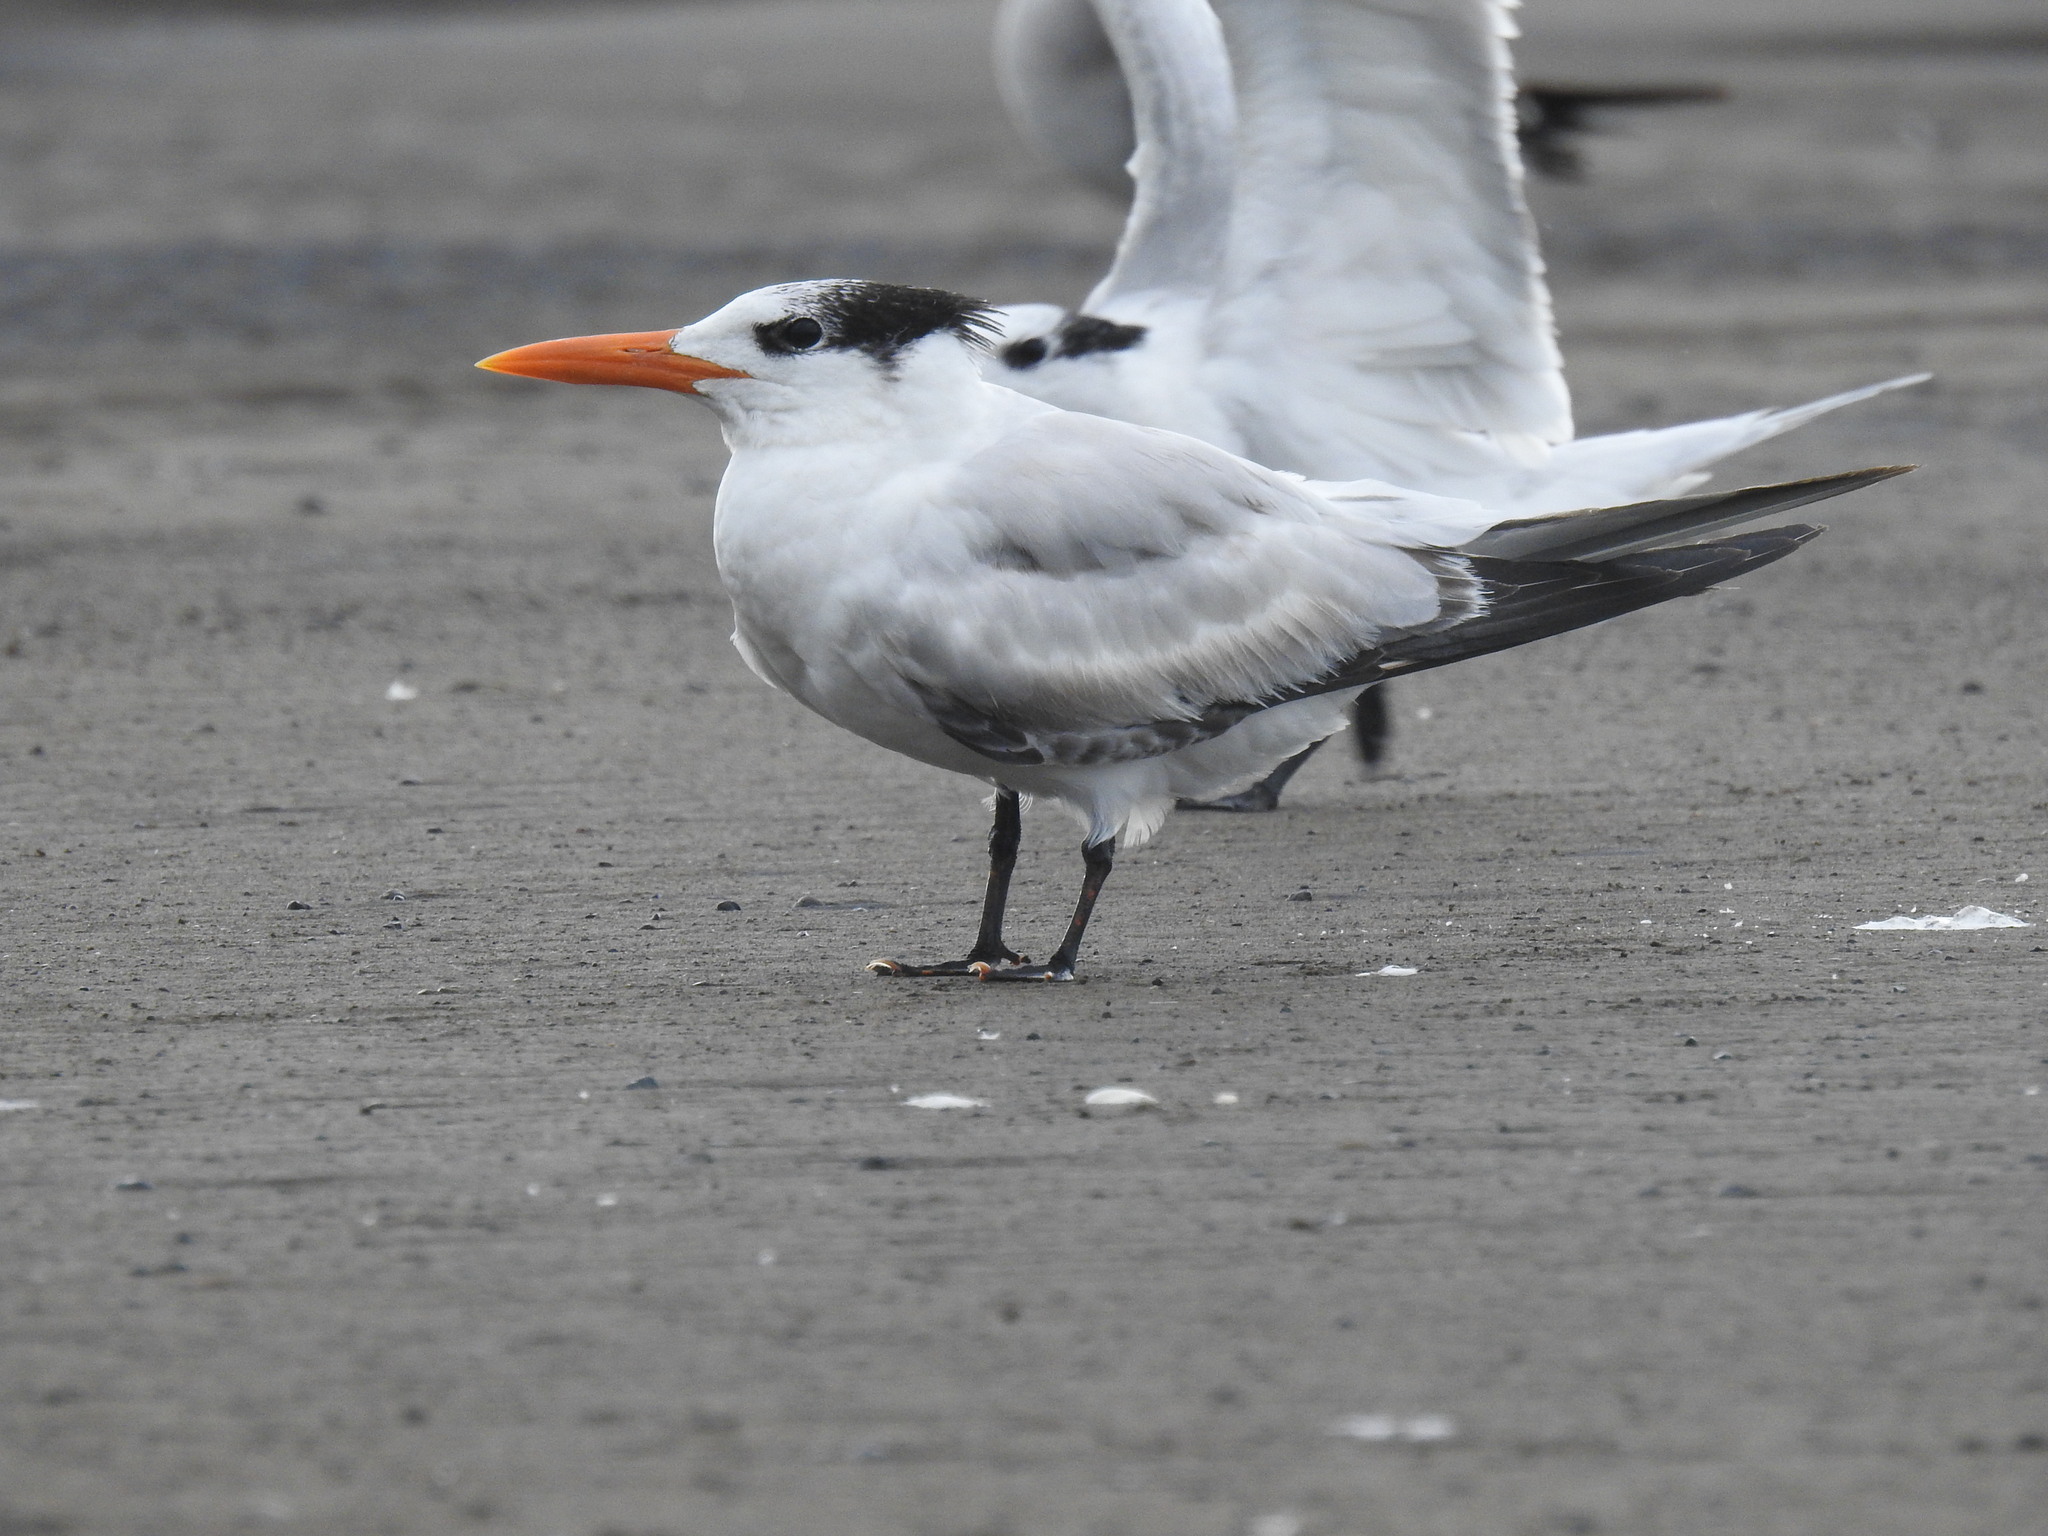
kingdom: Animalia
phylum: Chordata
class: Aves
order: Charadriiformes
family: Laridae
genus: Thalasseus
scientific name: Thalasseus maximus
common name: Royal tern
